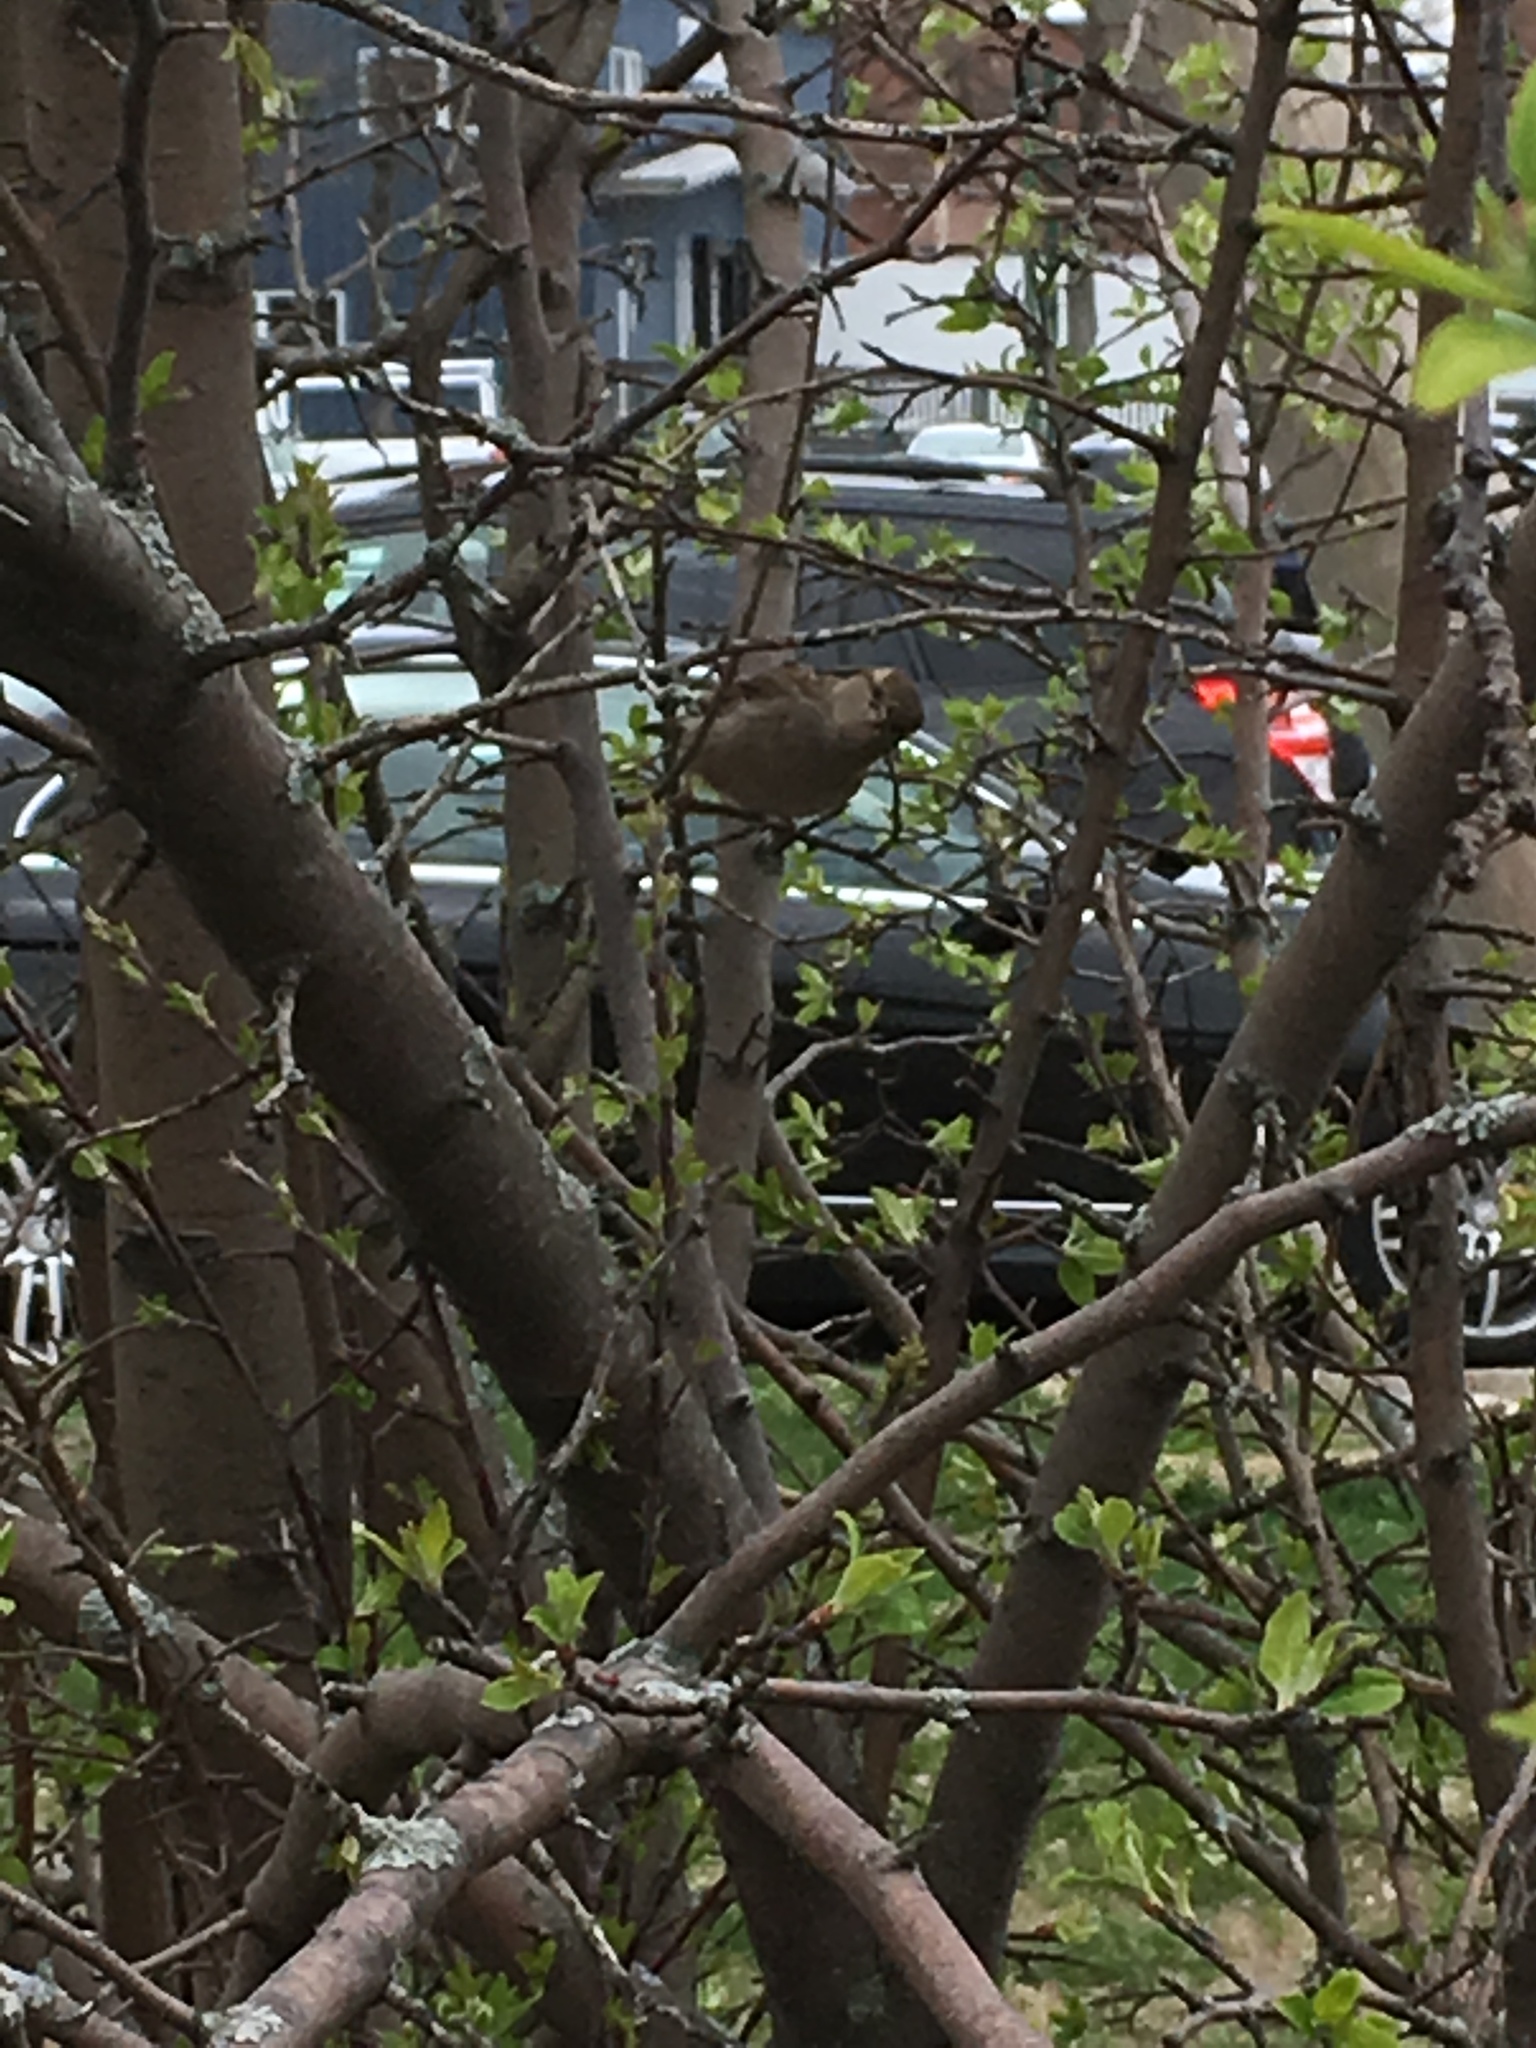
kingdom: Animalia
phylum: Chordata
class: Aves
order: Passeriformes
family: Passeridae
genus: Passer
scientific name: Passer domesticus
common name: House sparrow
